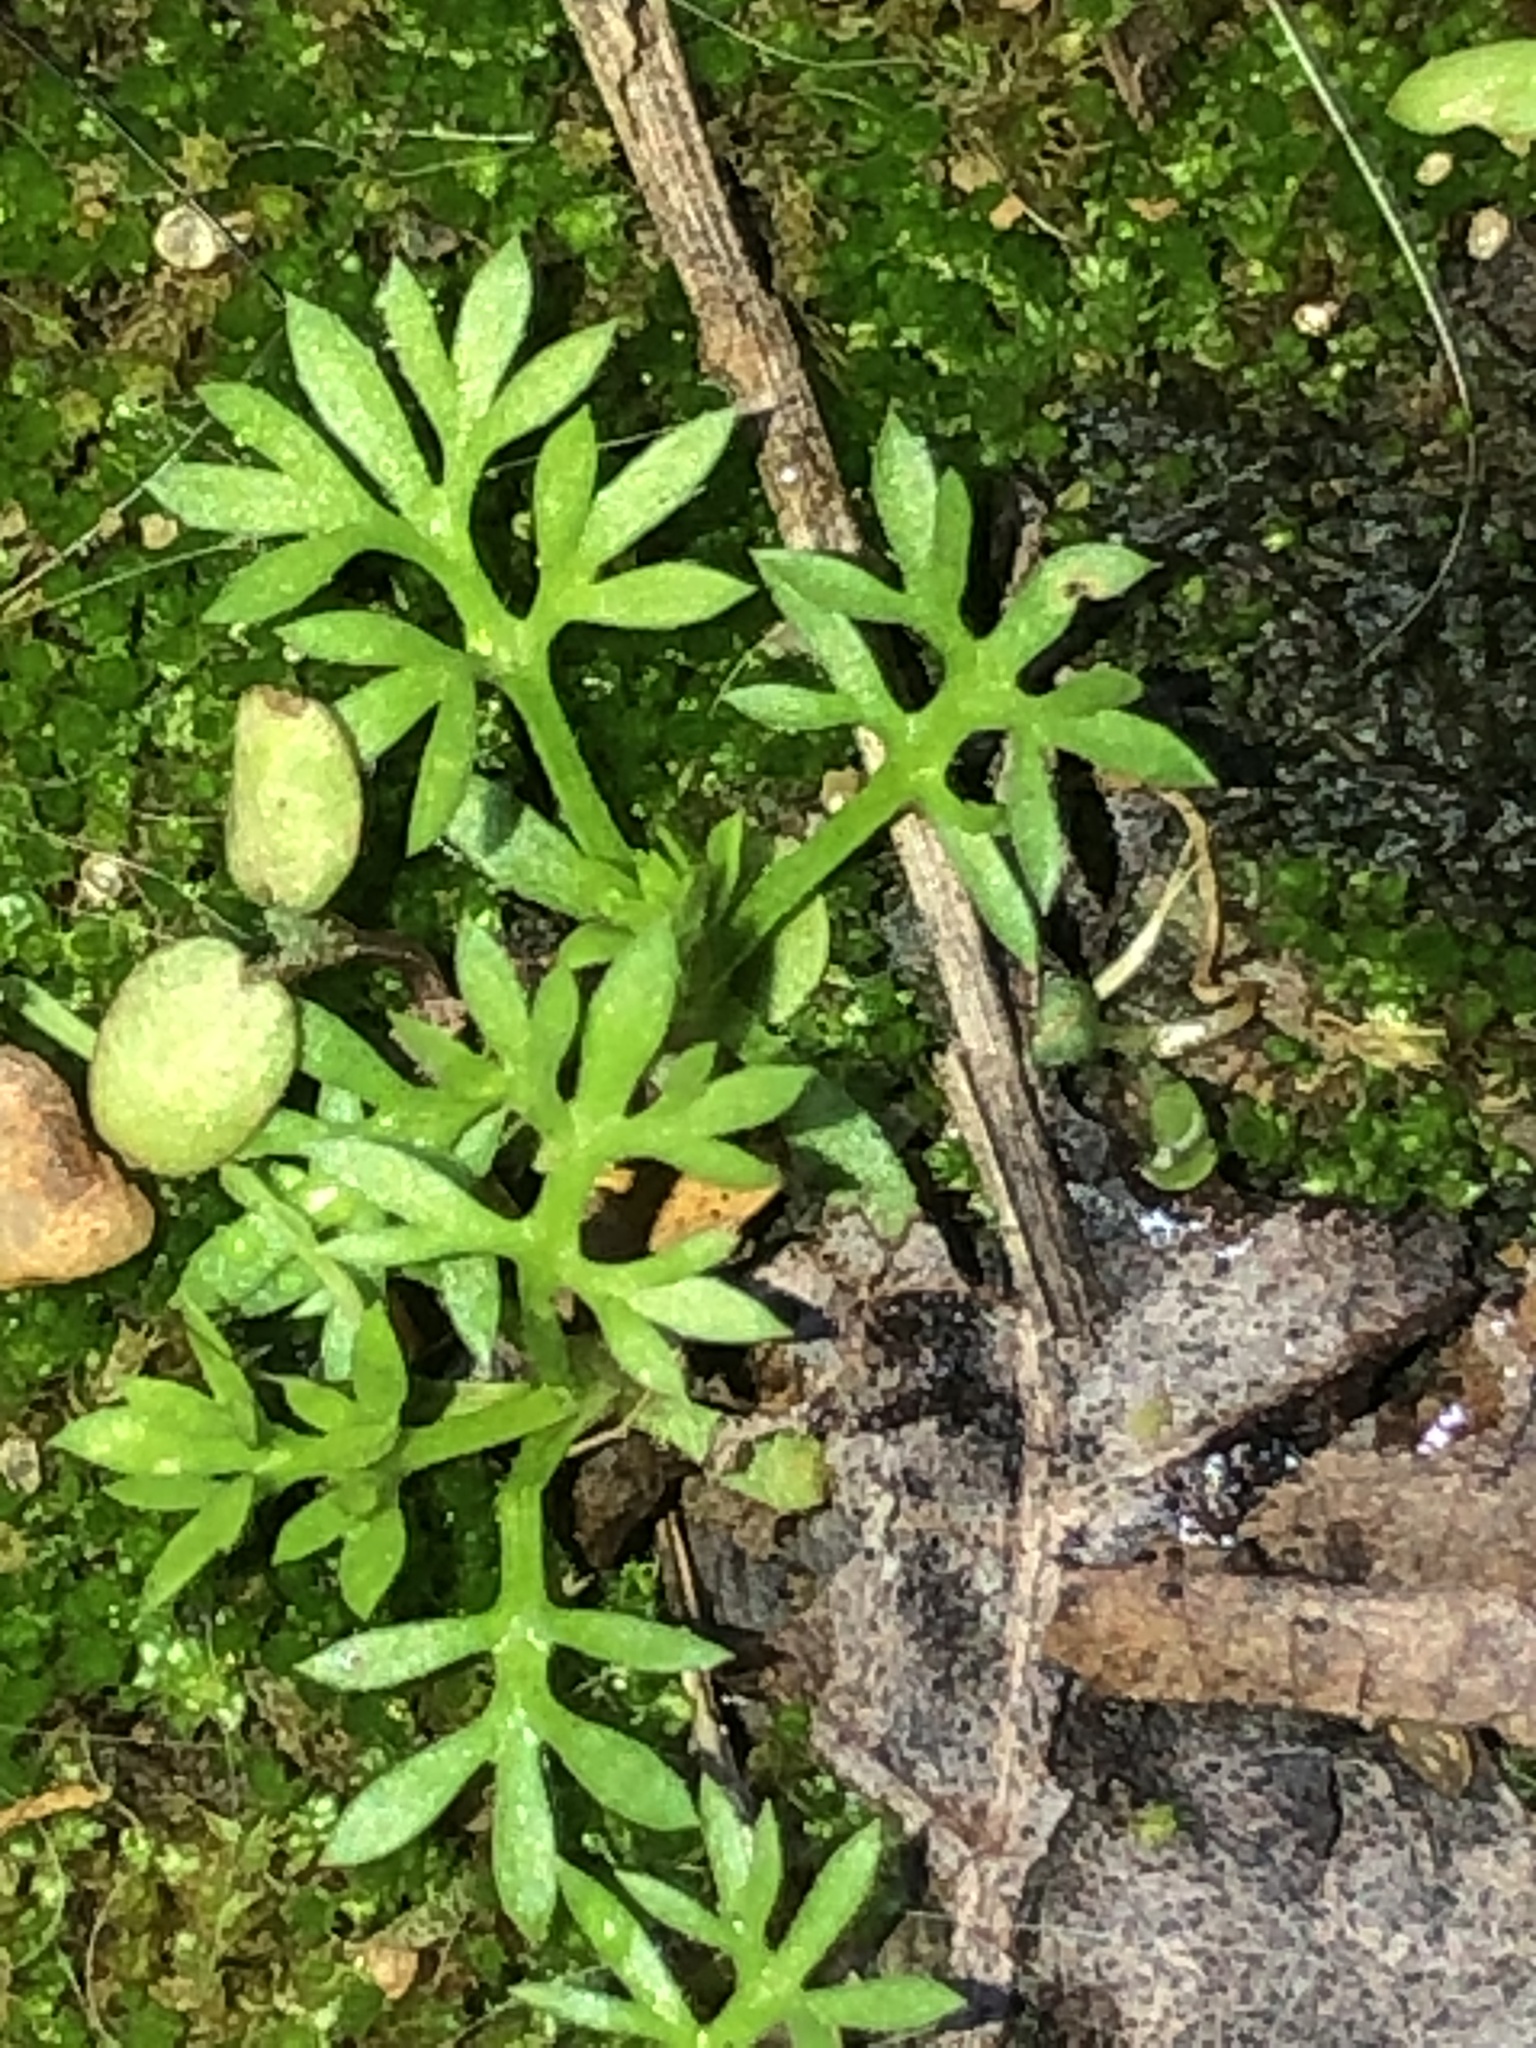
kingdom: Plantae
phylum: Tracheophyta
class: Magnoliopsida
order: Asterales
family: Asteraceae
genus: Soliva
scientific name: Soliva sessilis
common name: Field burrweed
